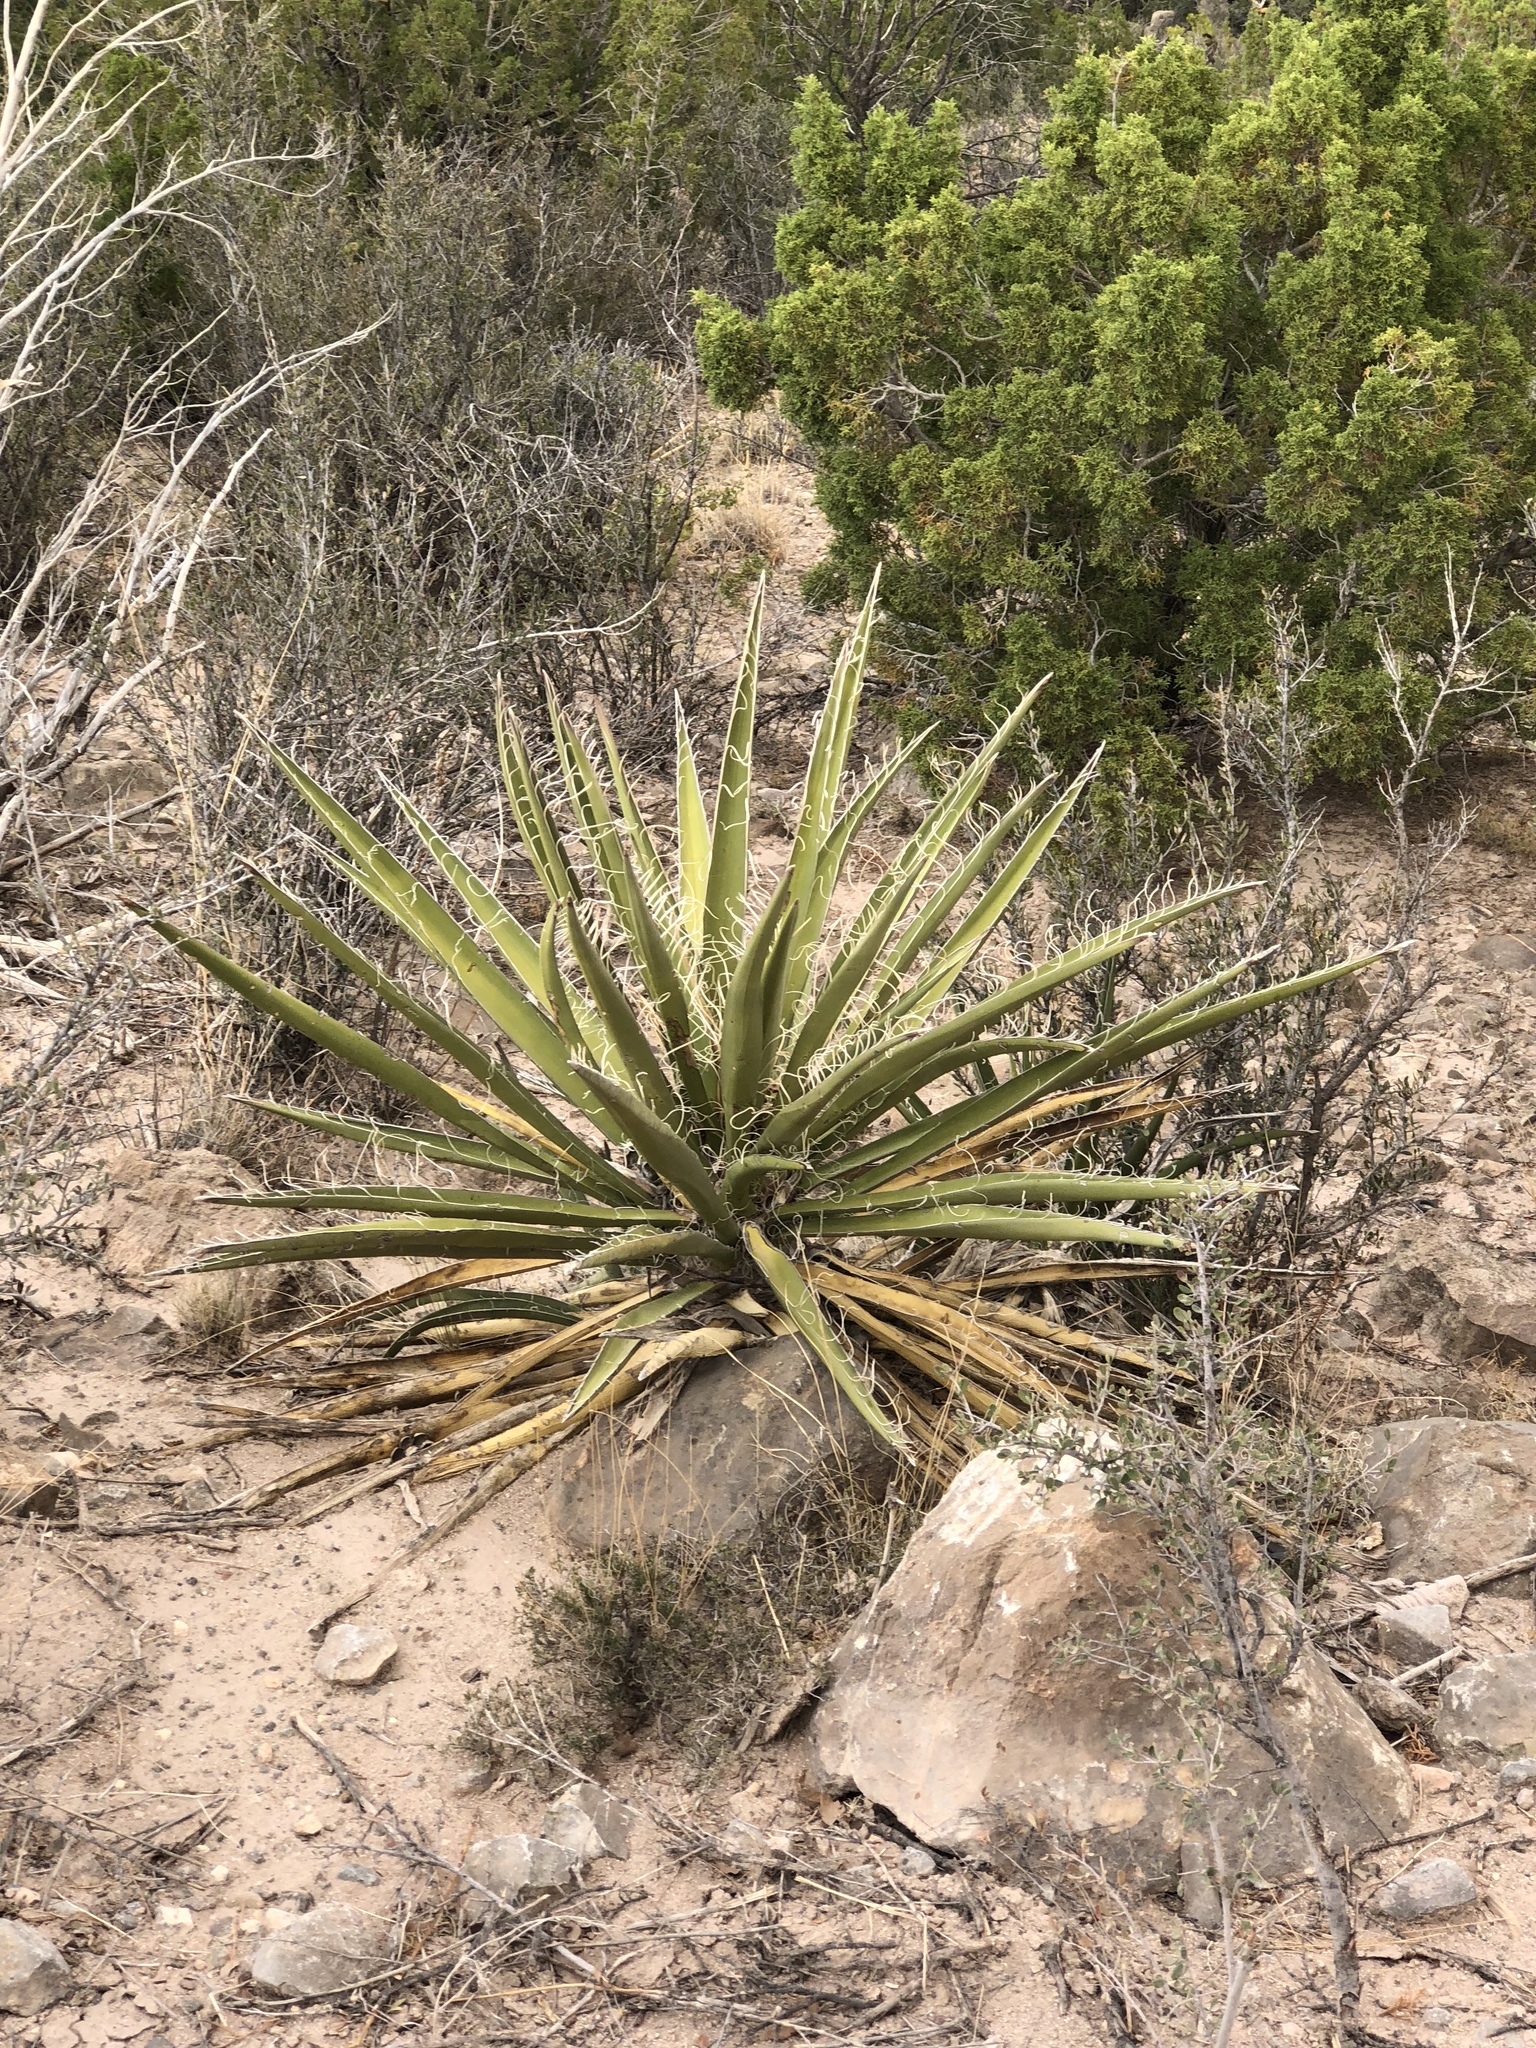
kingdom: Plantae
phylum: Tracheophyta
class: Liliopsida
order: Asparagales
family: Asparagaceae
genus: Yucca
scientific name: Yucca baccata
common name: Banana yucca
